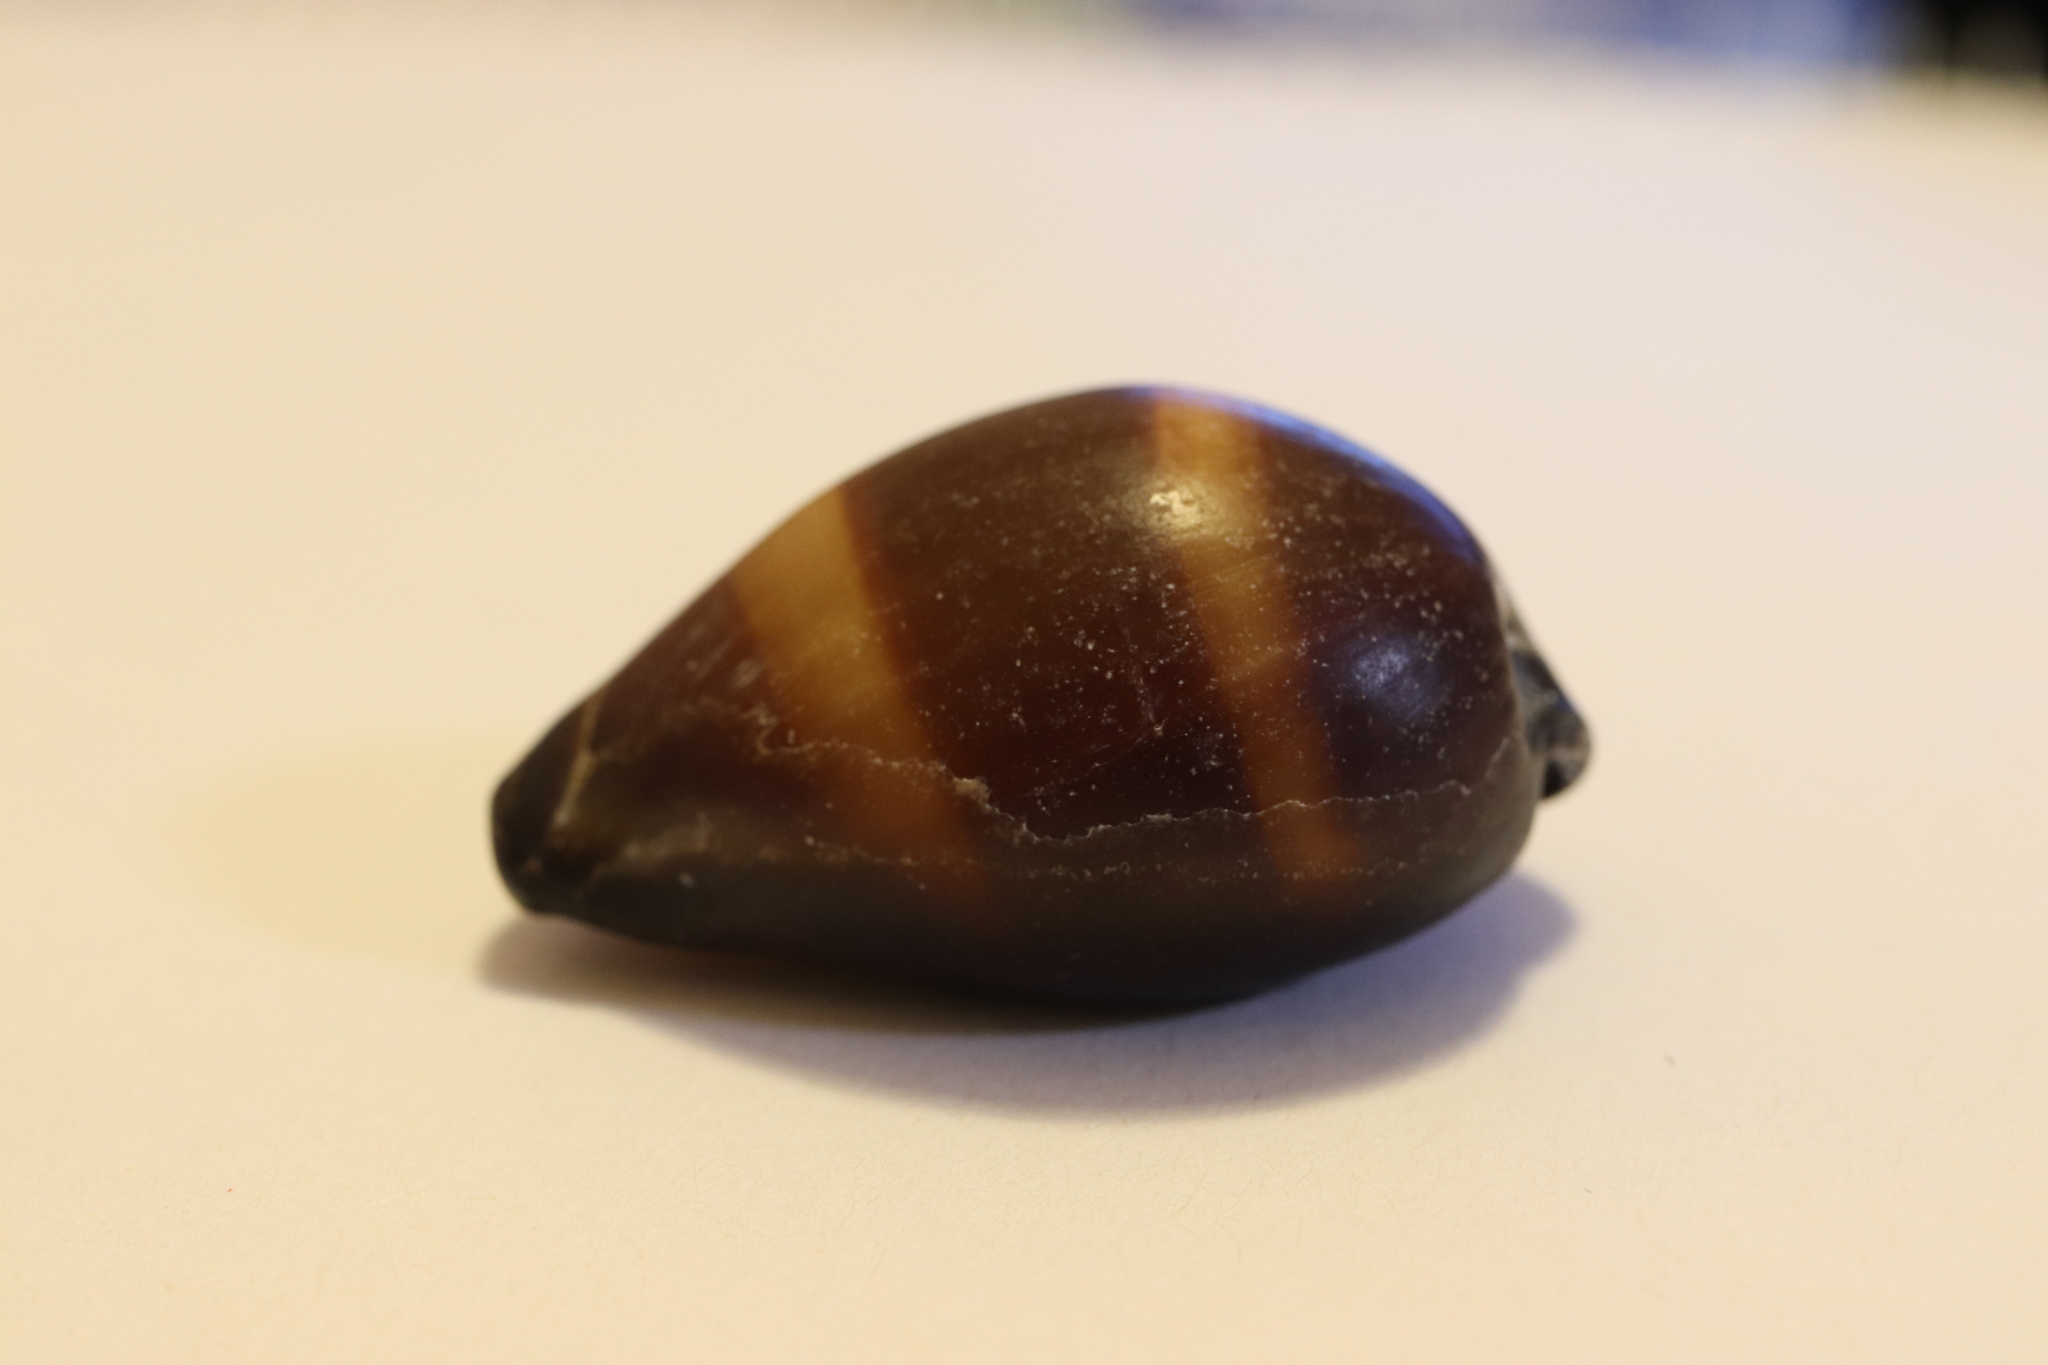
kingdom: Animalia
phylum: Mollusca
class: Gastropoda
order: Littorinimorpha
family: Cypraeidae
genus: Erronea
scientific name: Erronea onyx
